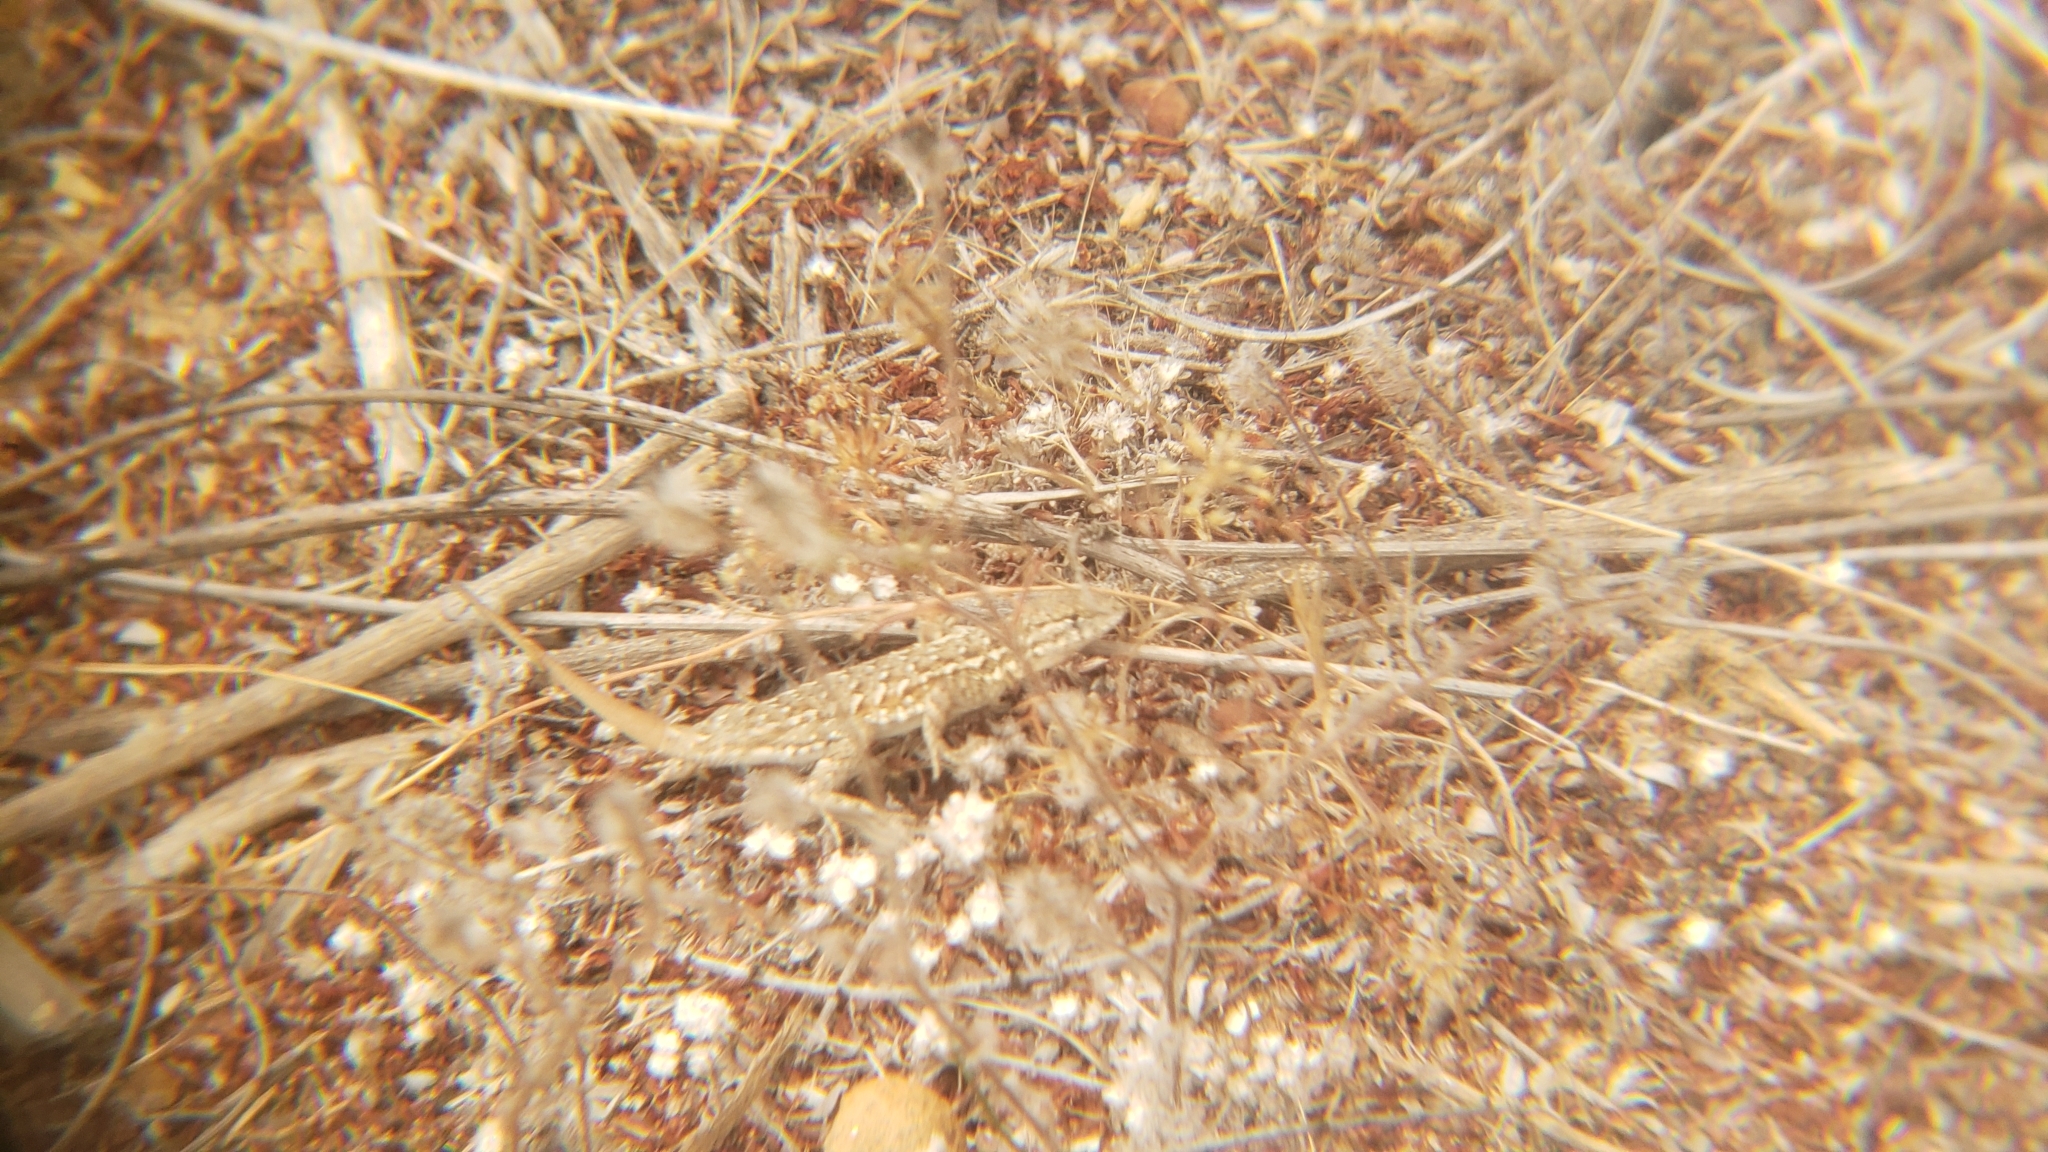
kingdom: Animalia
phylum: Chordata
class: Squamata
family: Phrynosomatidae
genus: Uta
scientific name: Uta stansburiana
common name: Side-blotched lizard
